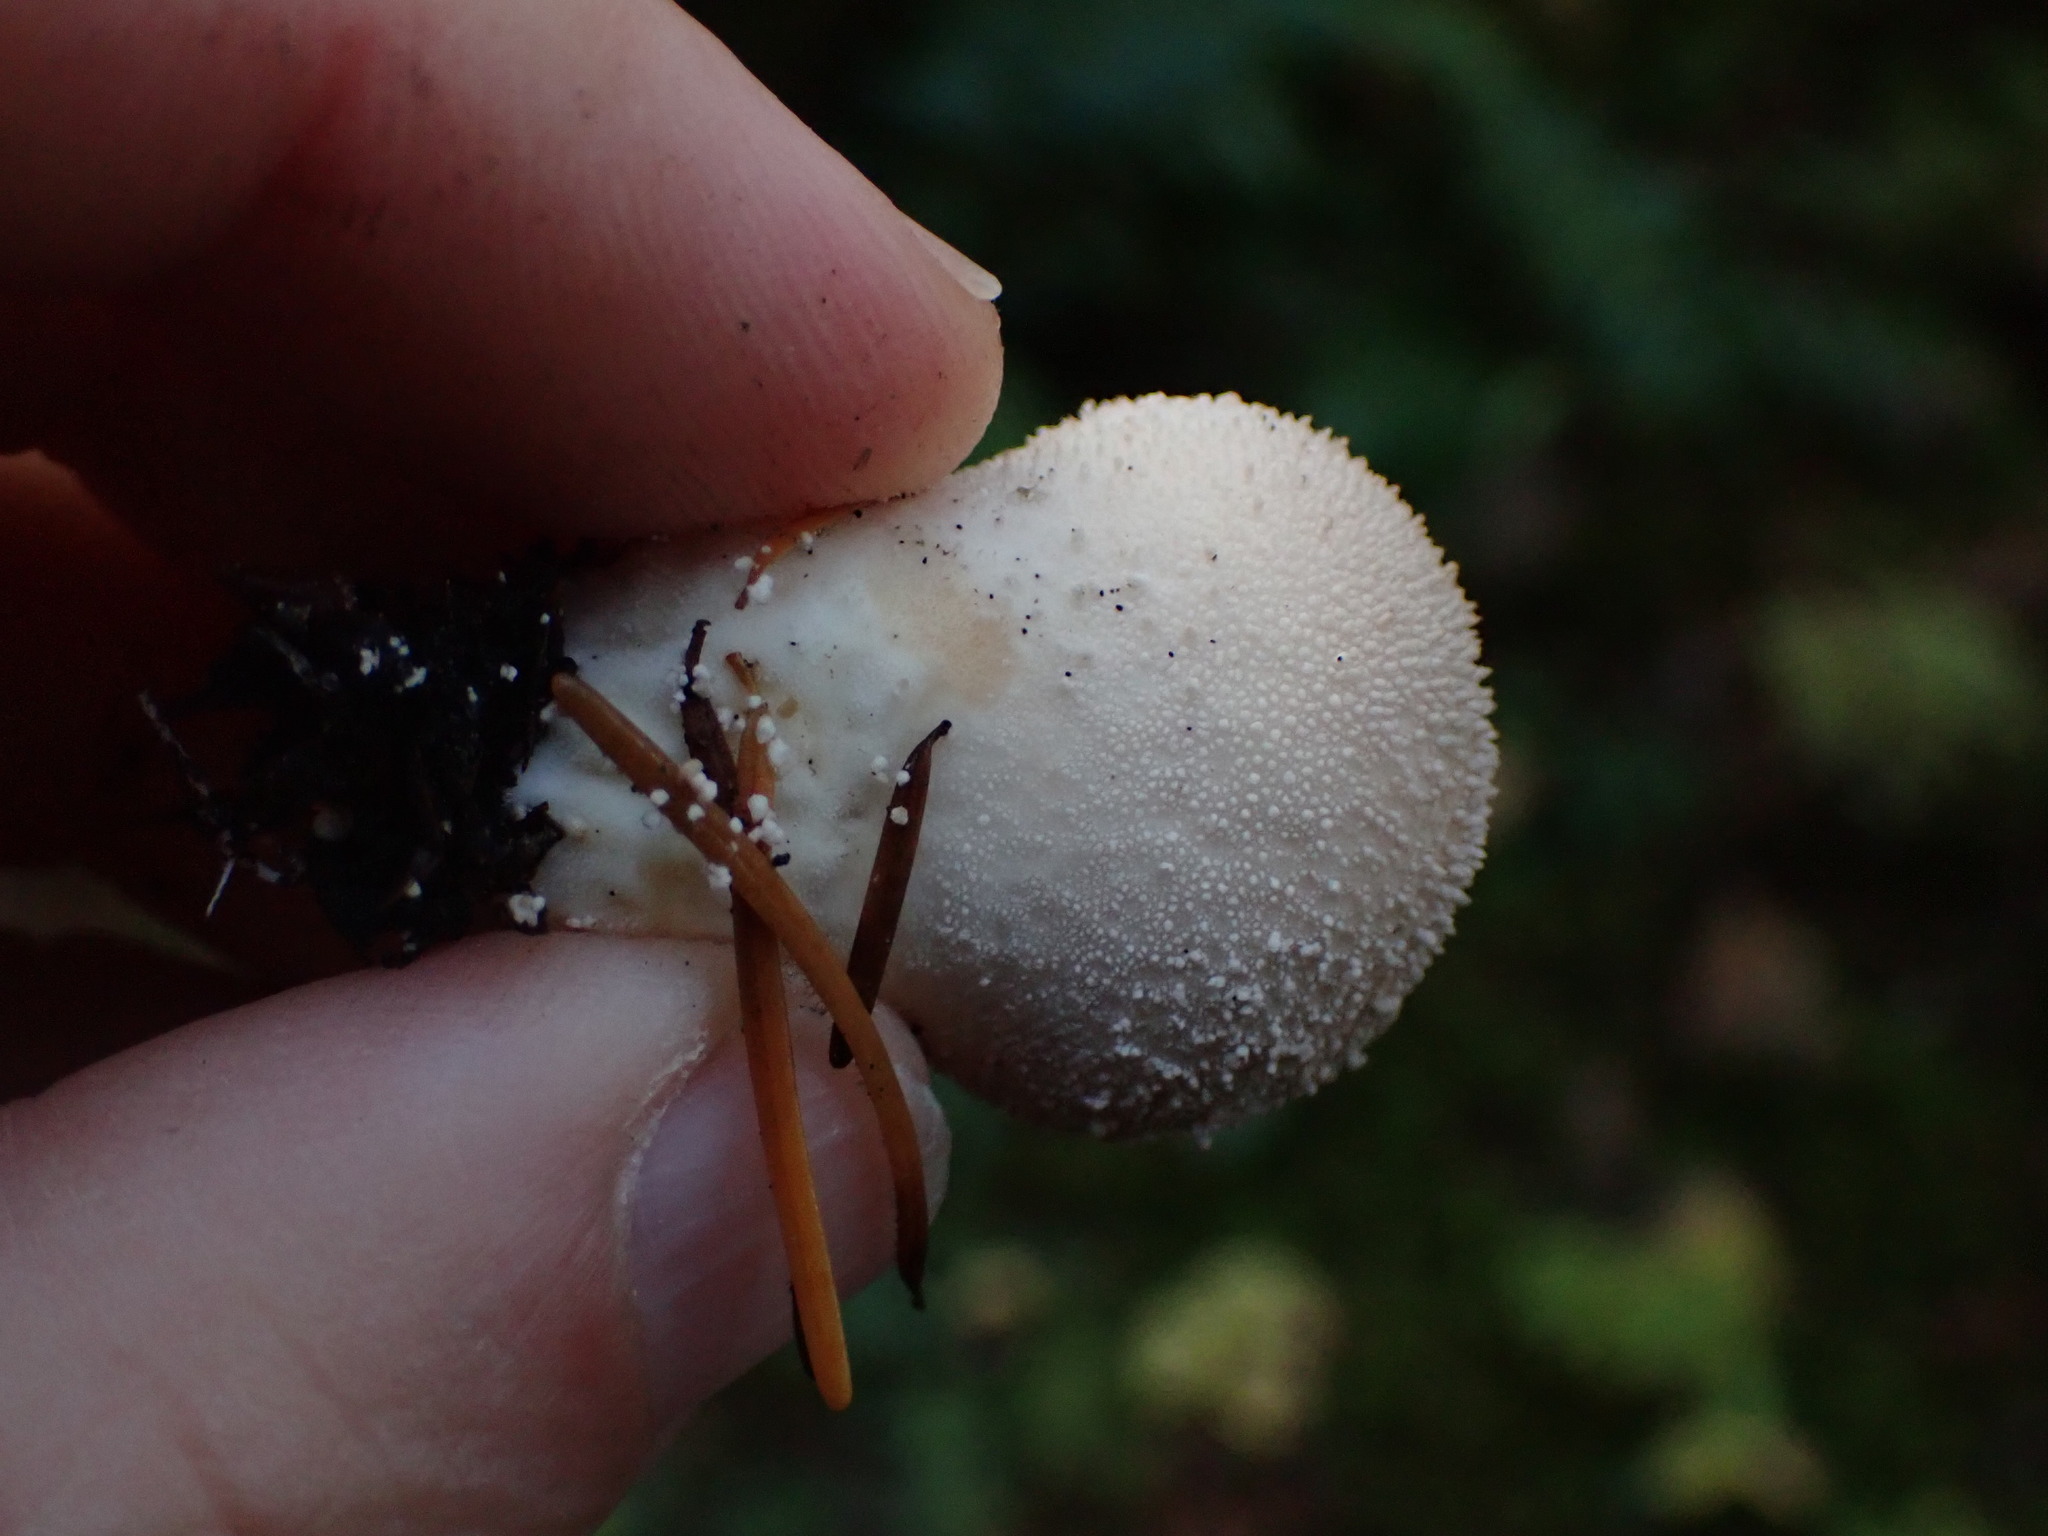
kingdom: Fungi
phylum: Basidiomycota
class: Agaricomycetes
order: Agaricales
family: Lycoperdaceae
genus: Lycoperdon
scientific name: Lycoperdon perlatum
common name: Common puffball
